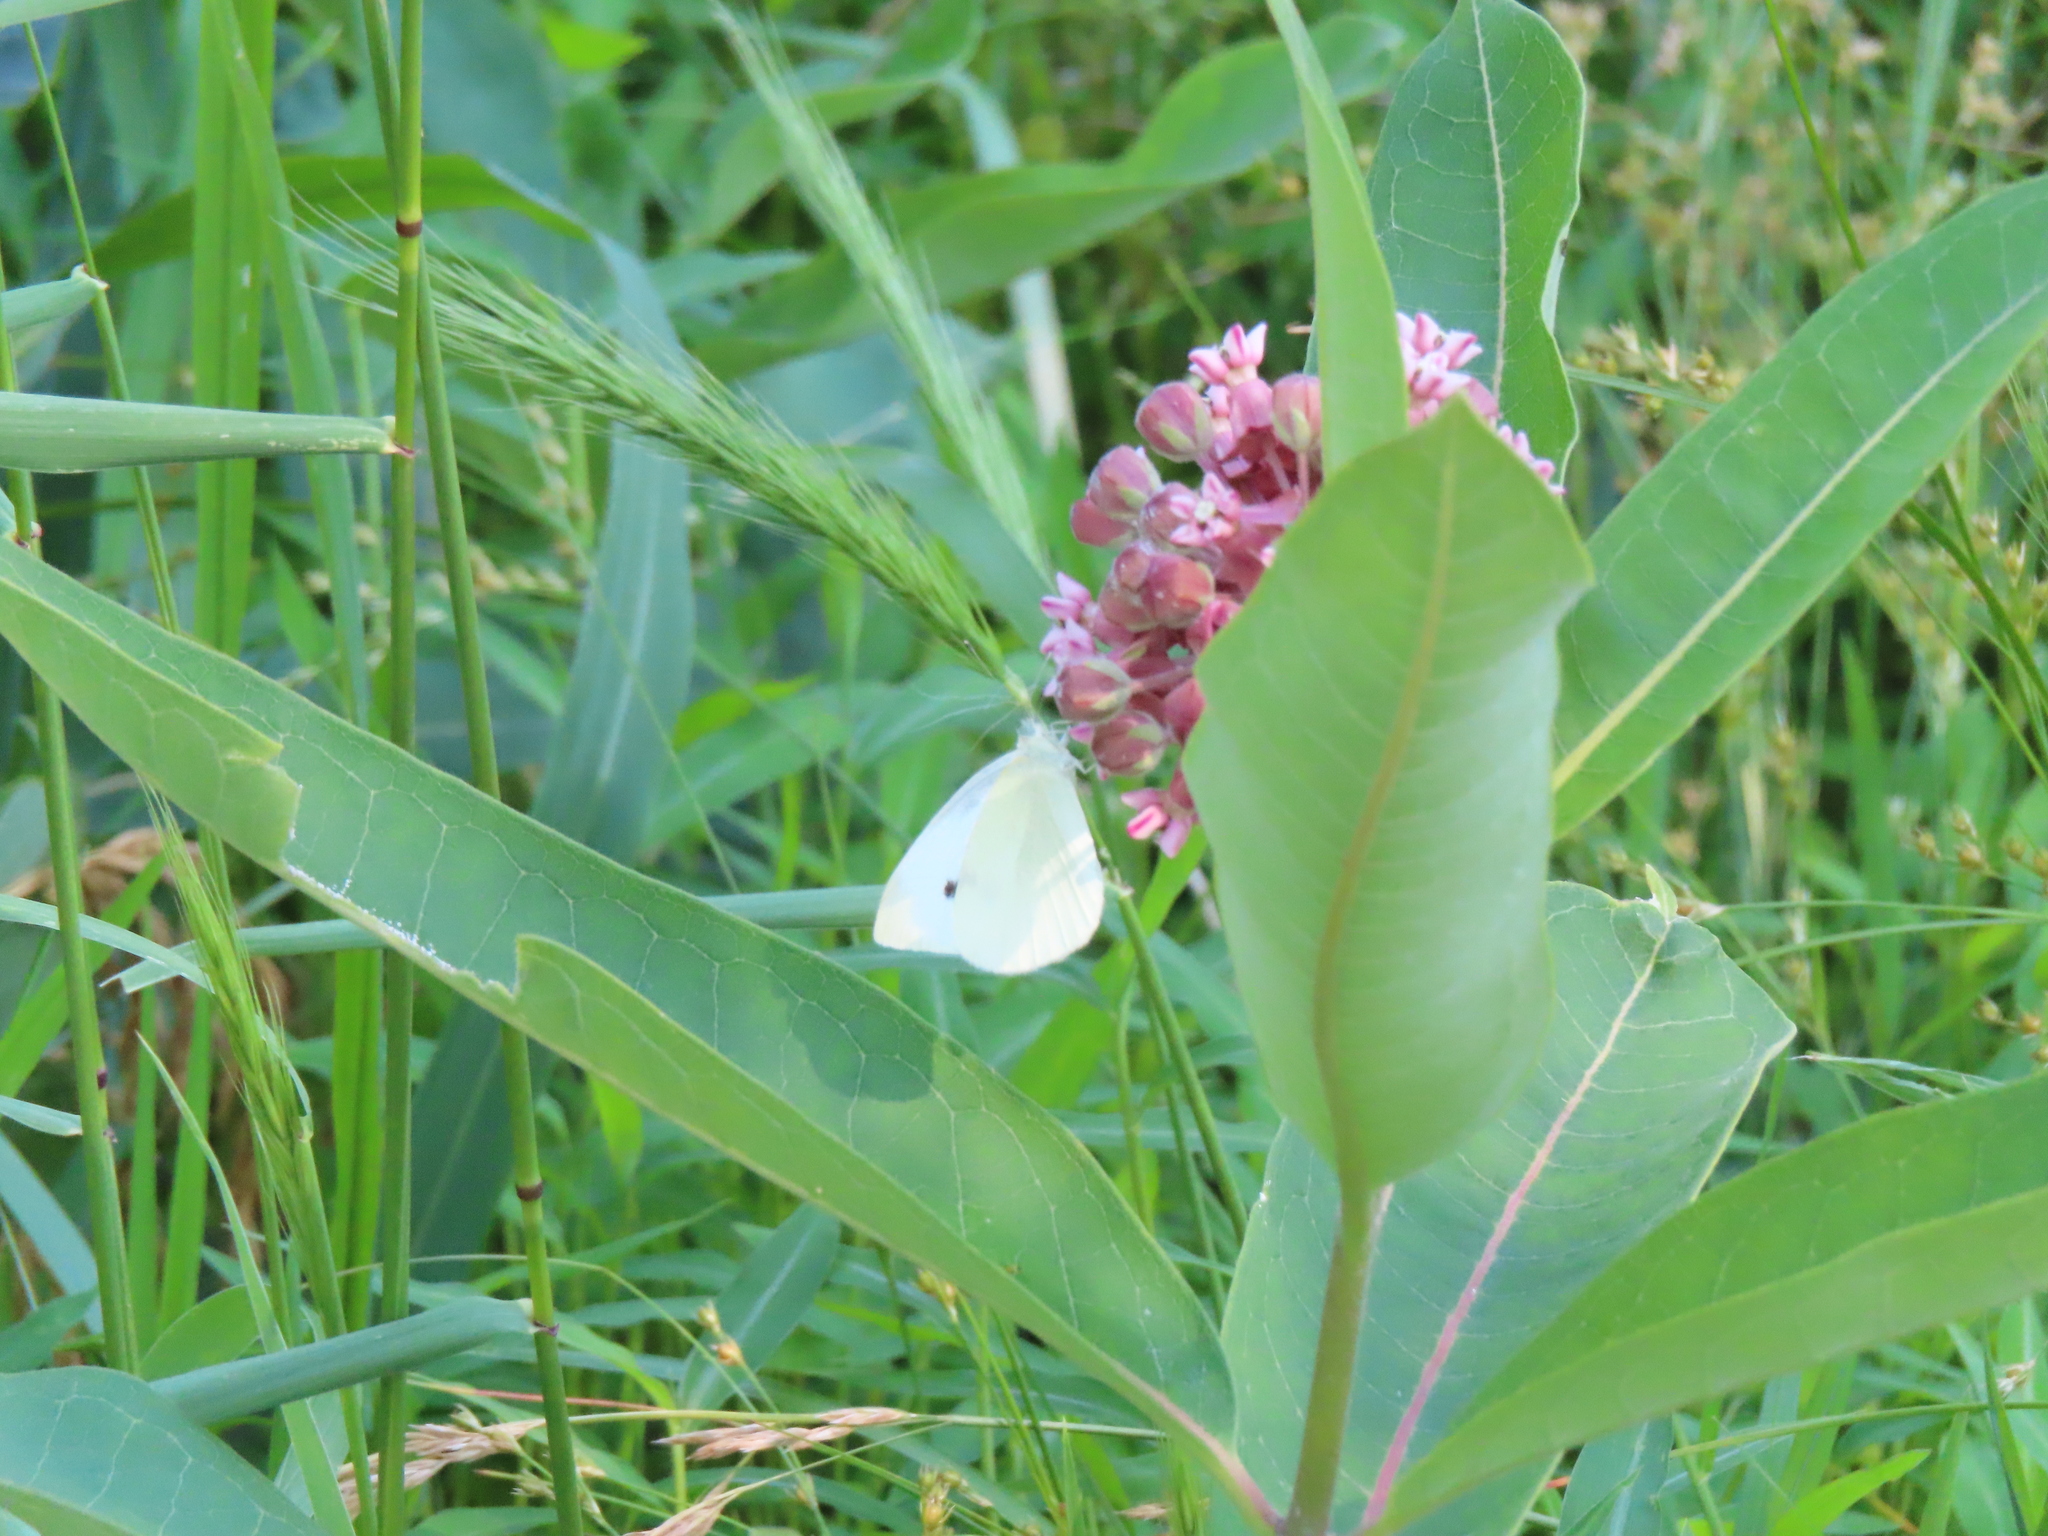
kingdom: Animalia
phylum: Arthropoda
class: Insecta
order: Lepidoptera
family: Pieridae
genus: Pieris
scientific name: Pieris rapae
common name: Small white
